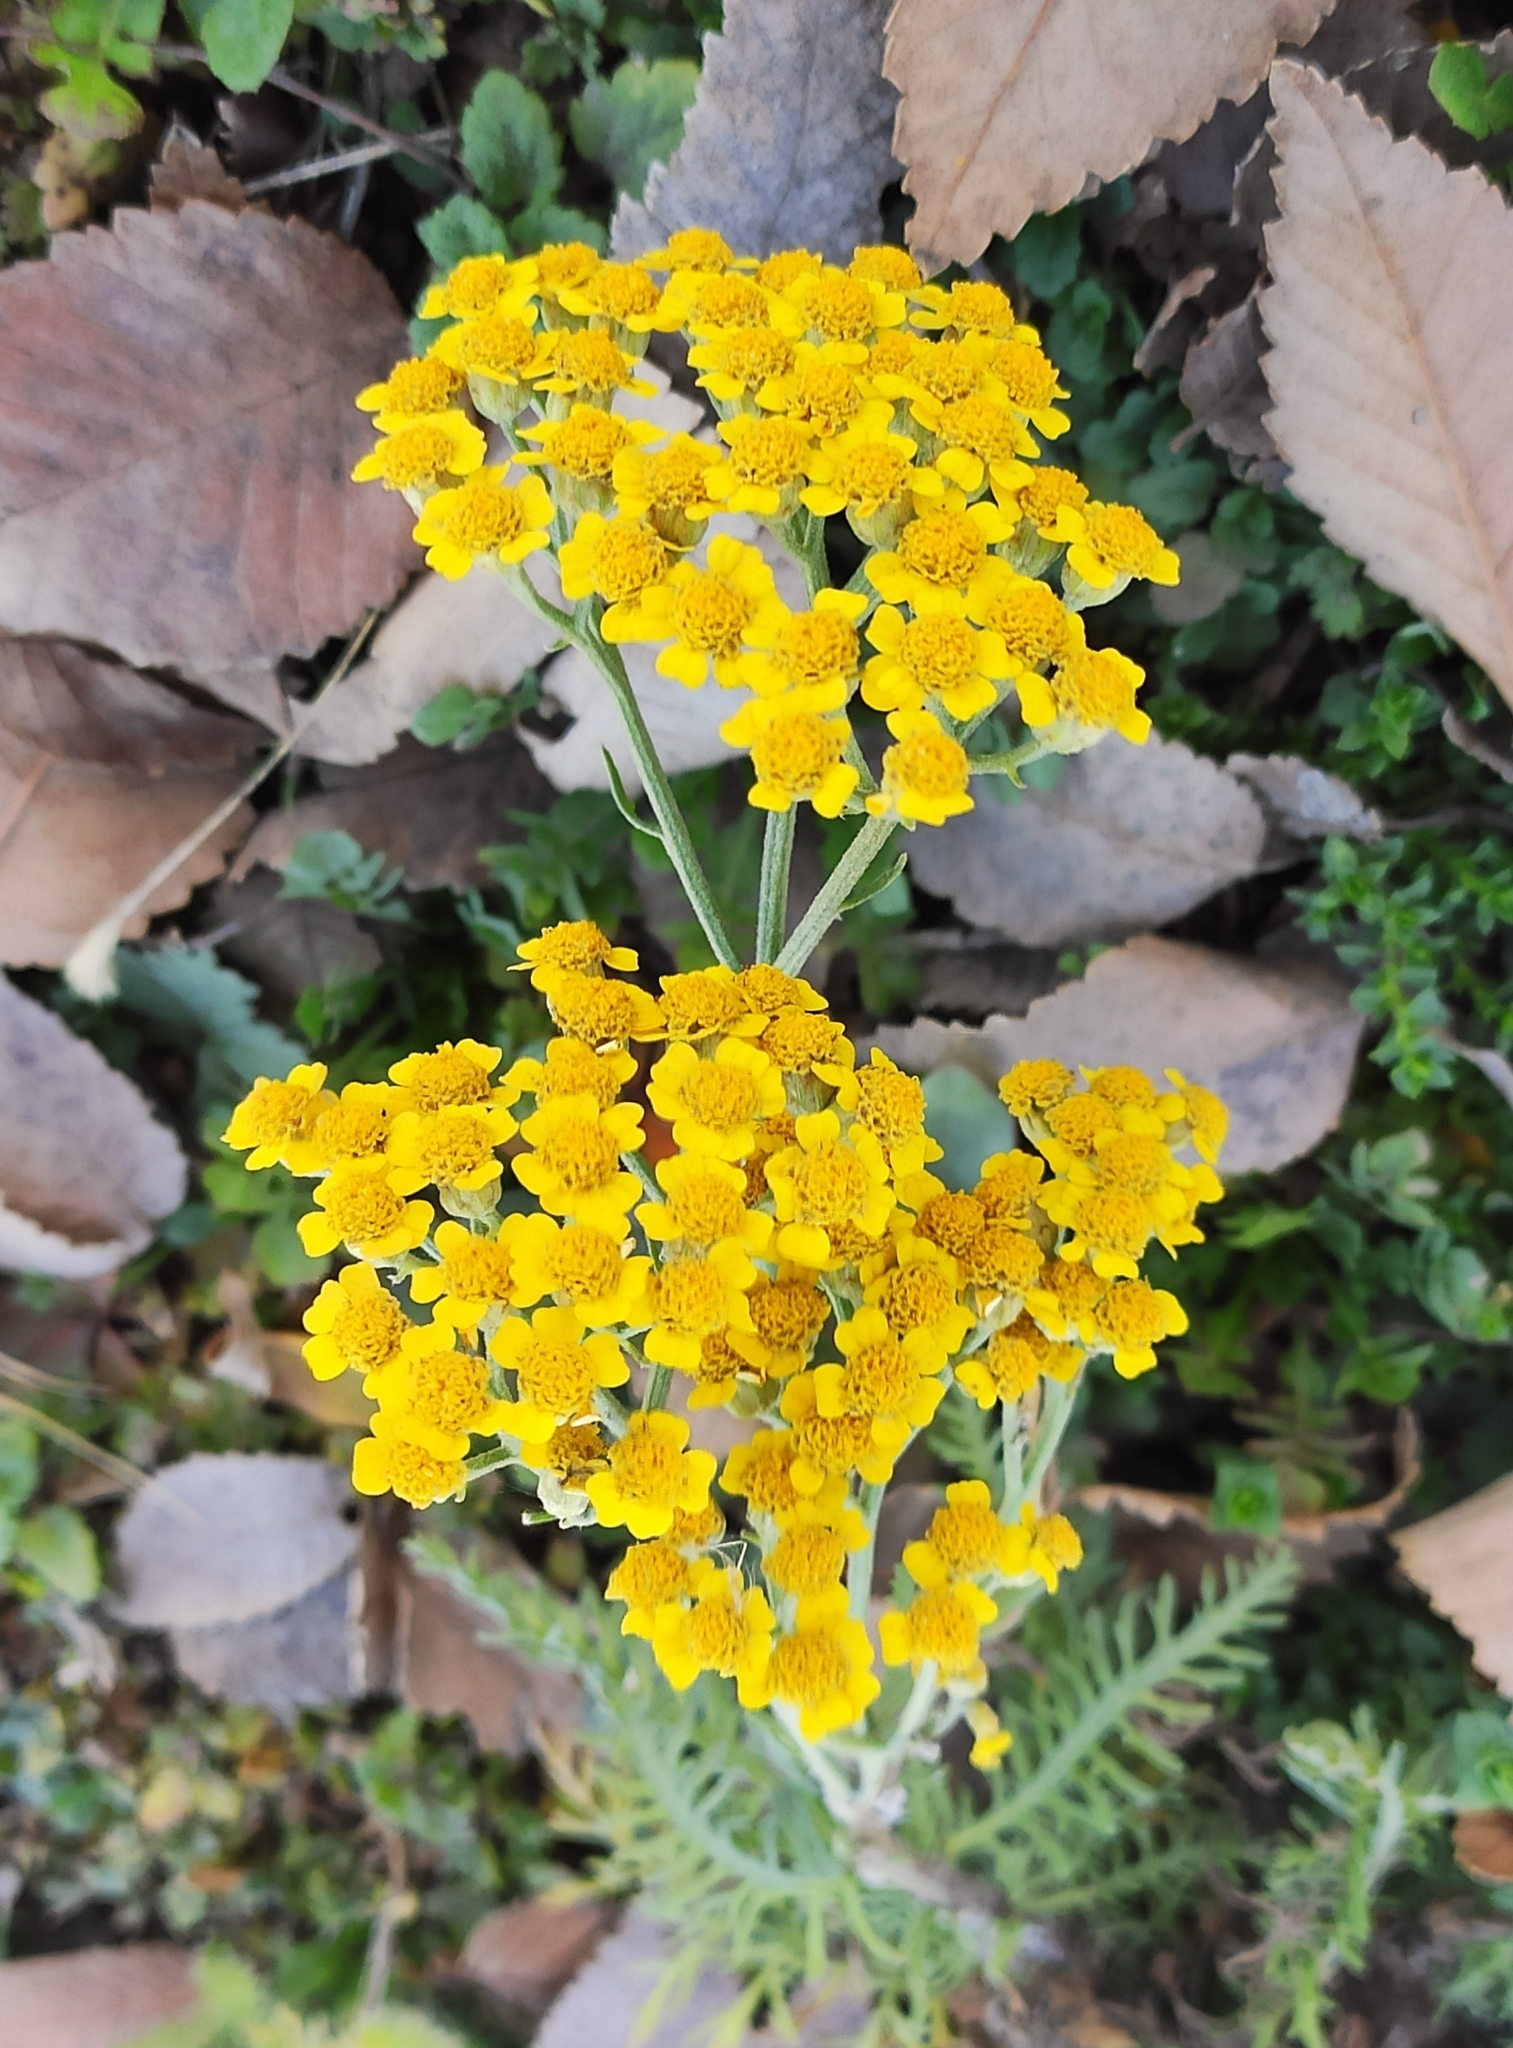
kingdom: Plantae
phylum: Tracheophyta
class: Magnoliopsida
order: Asterales
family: Asteraceae
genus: Achillea
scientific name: Achillea arabica
